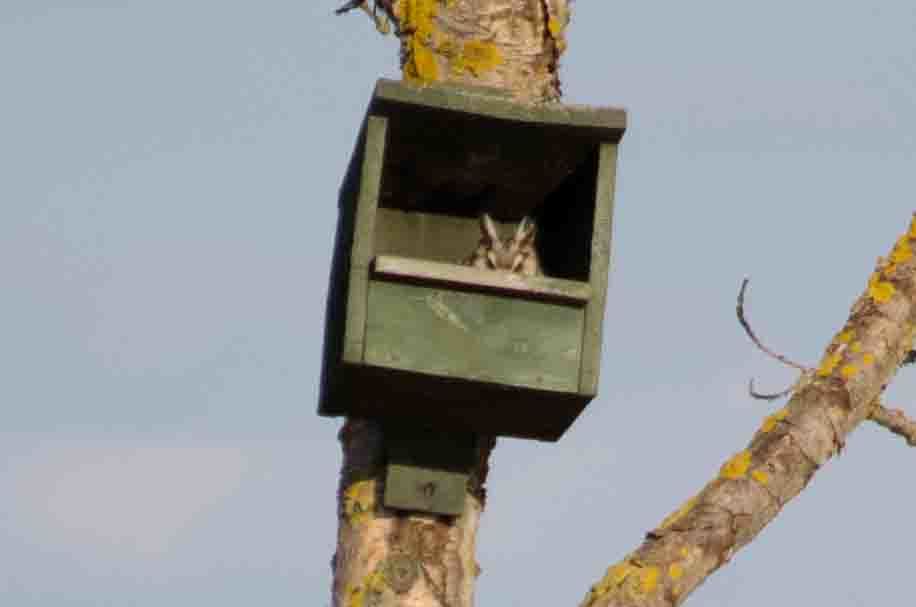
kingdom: Animalia
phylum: Chordata
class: Aves
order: Strigiformes
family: Strigidae
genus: Asio
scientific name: Asio otus
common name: Long-eared owl
